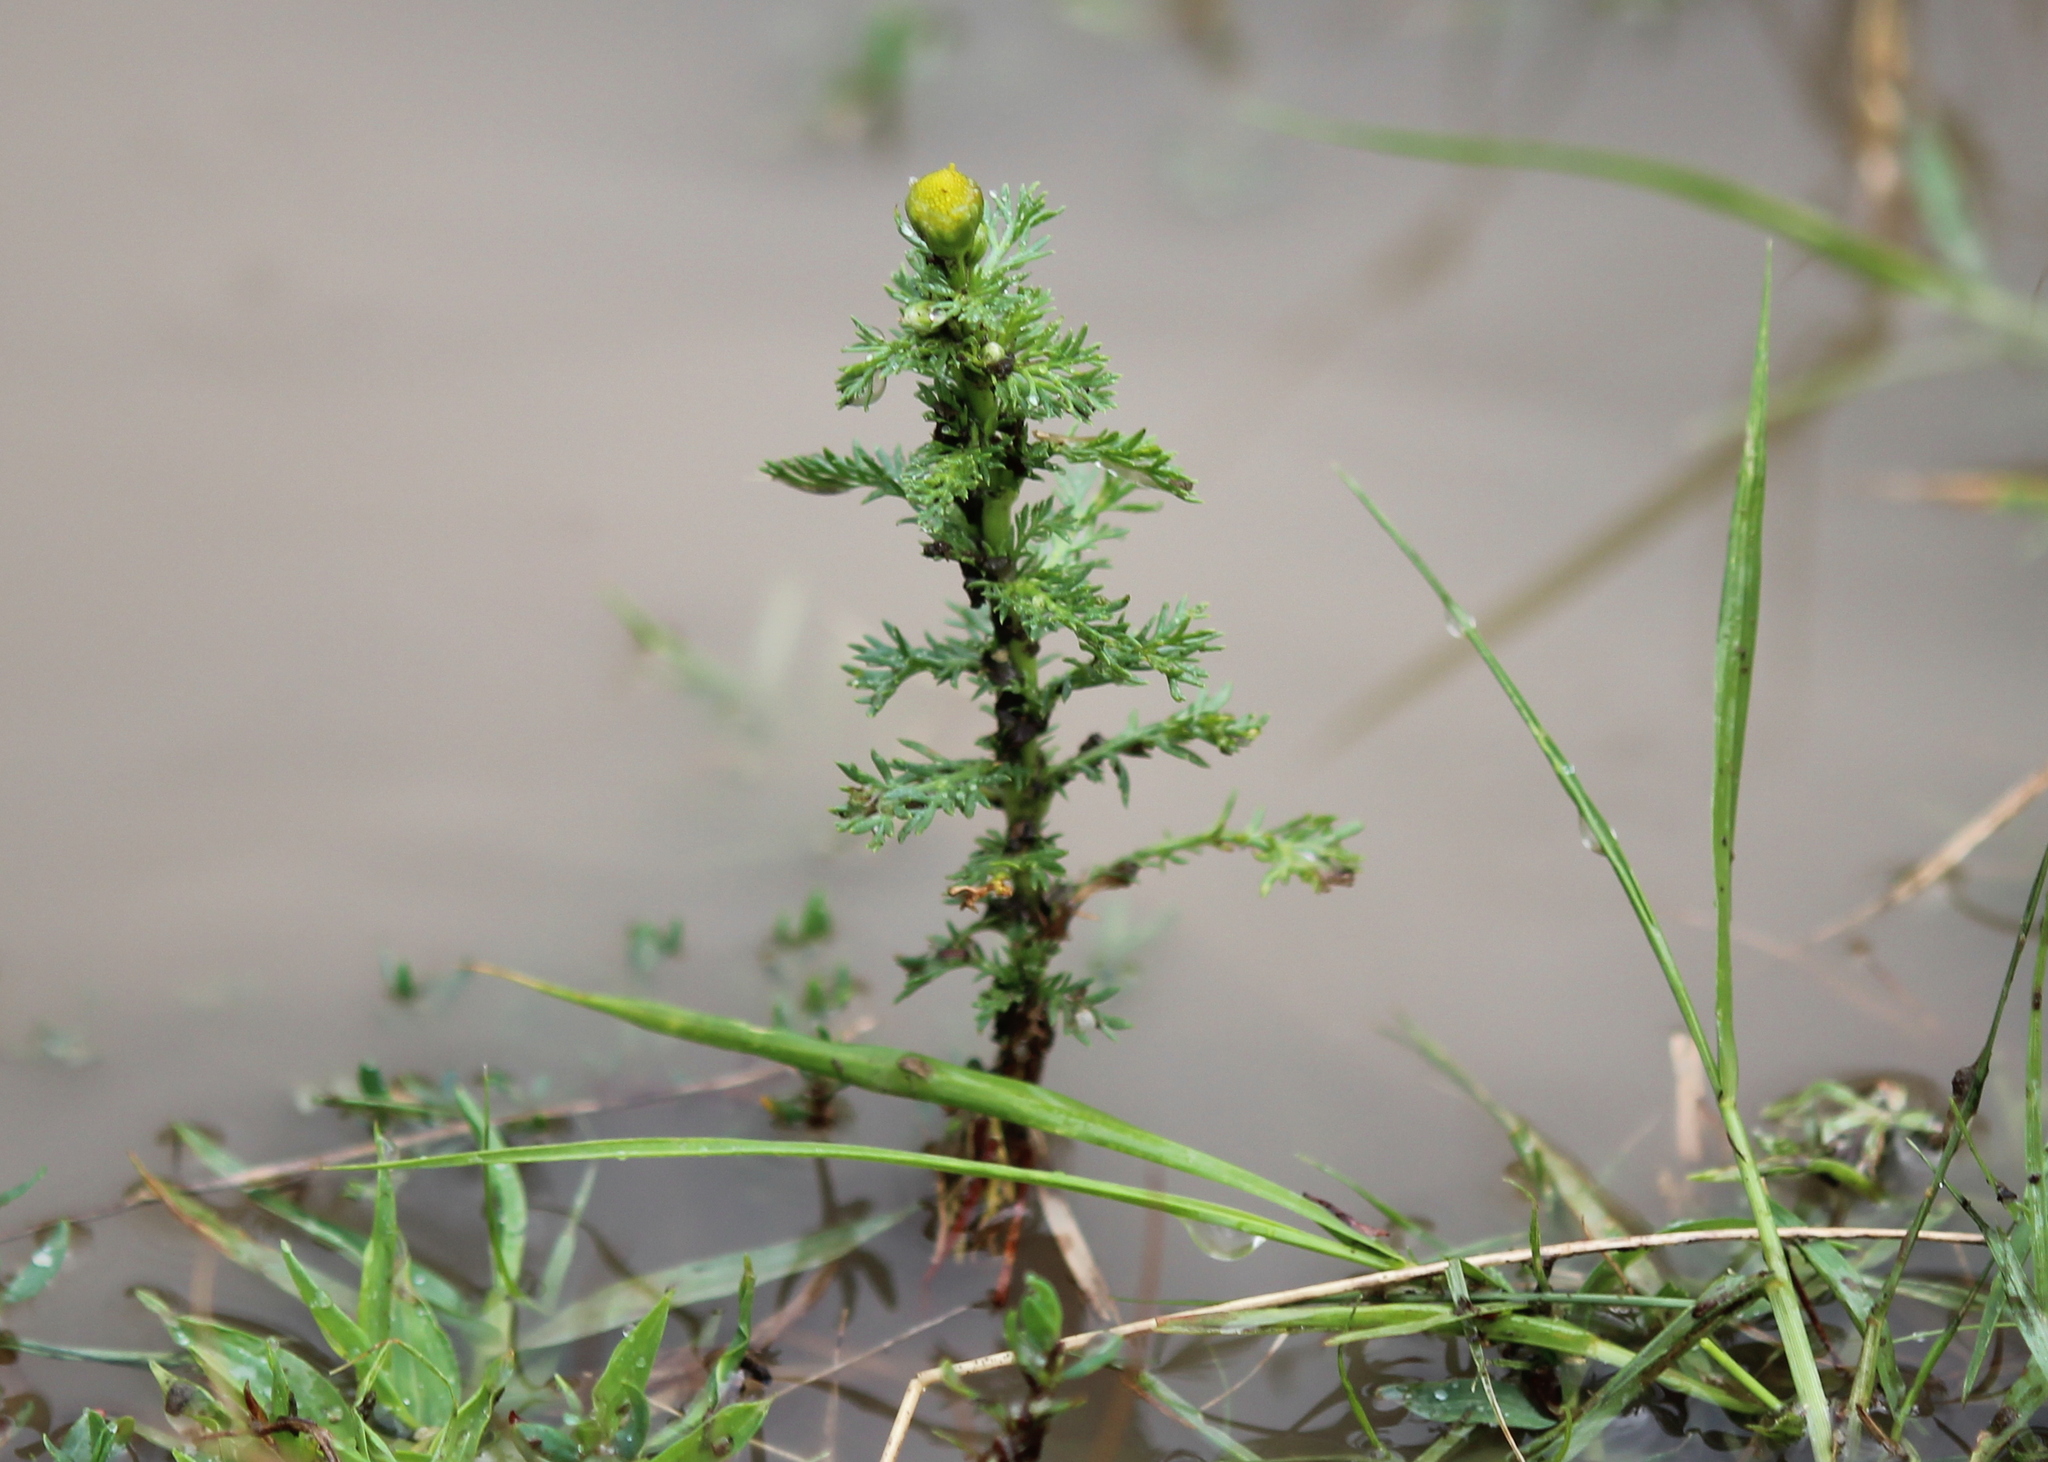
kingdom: Plantae
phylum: Tracheophyta
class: Magnoliopsida
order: Asterales
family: Asteraceae
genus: Matricaria
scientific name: Matricaria discoidea
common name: Disc mayweed
